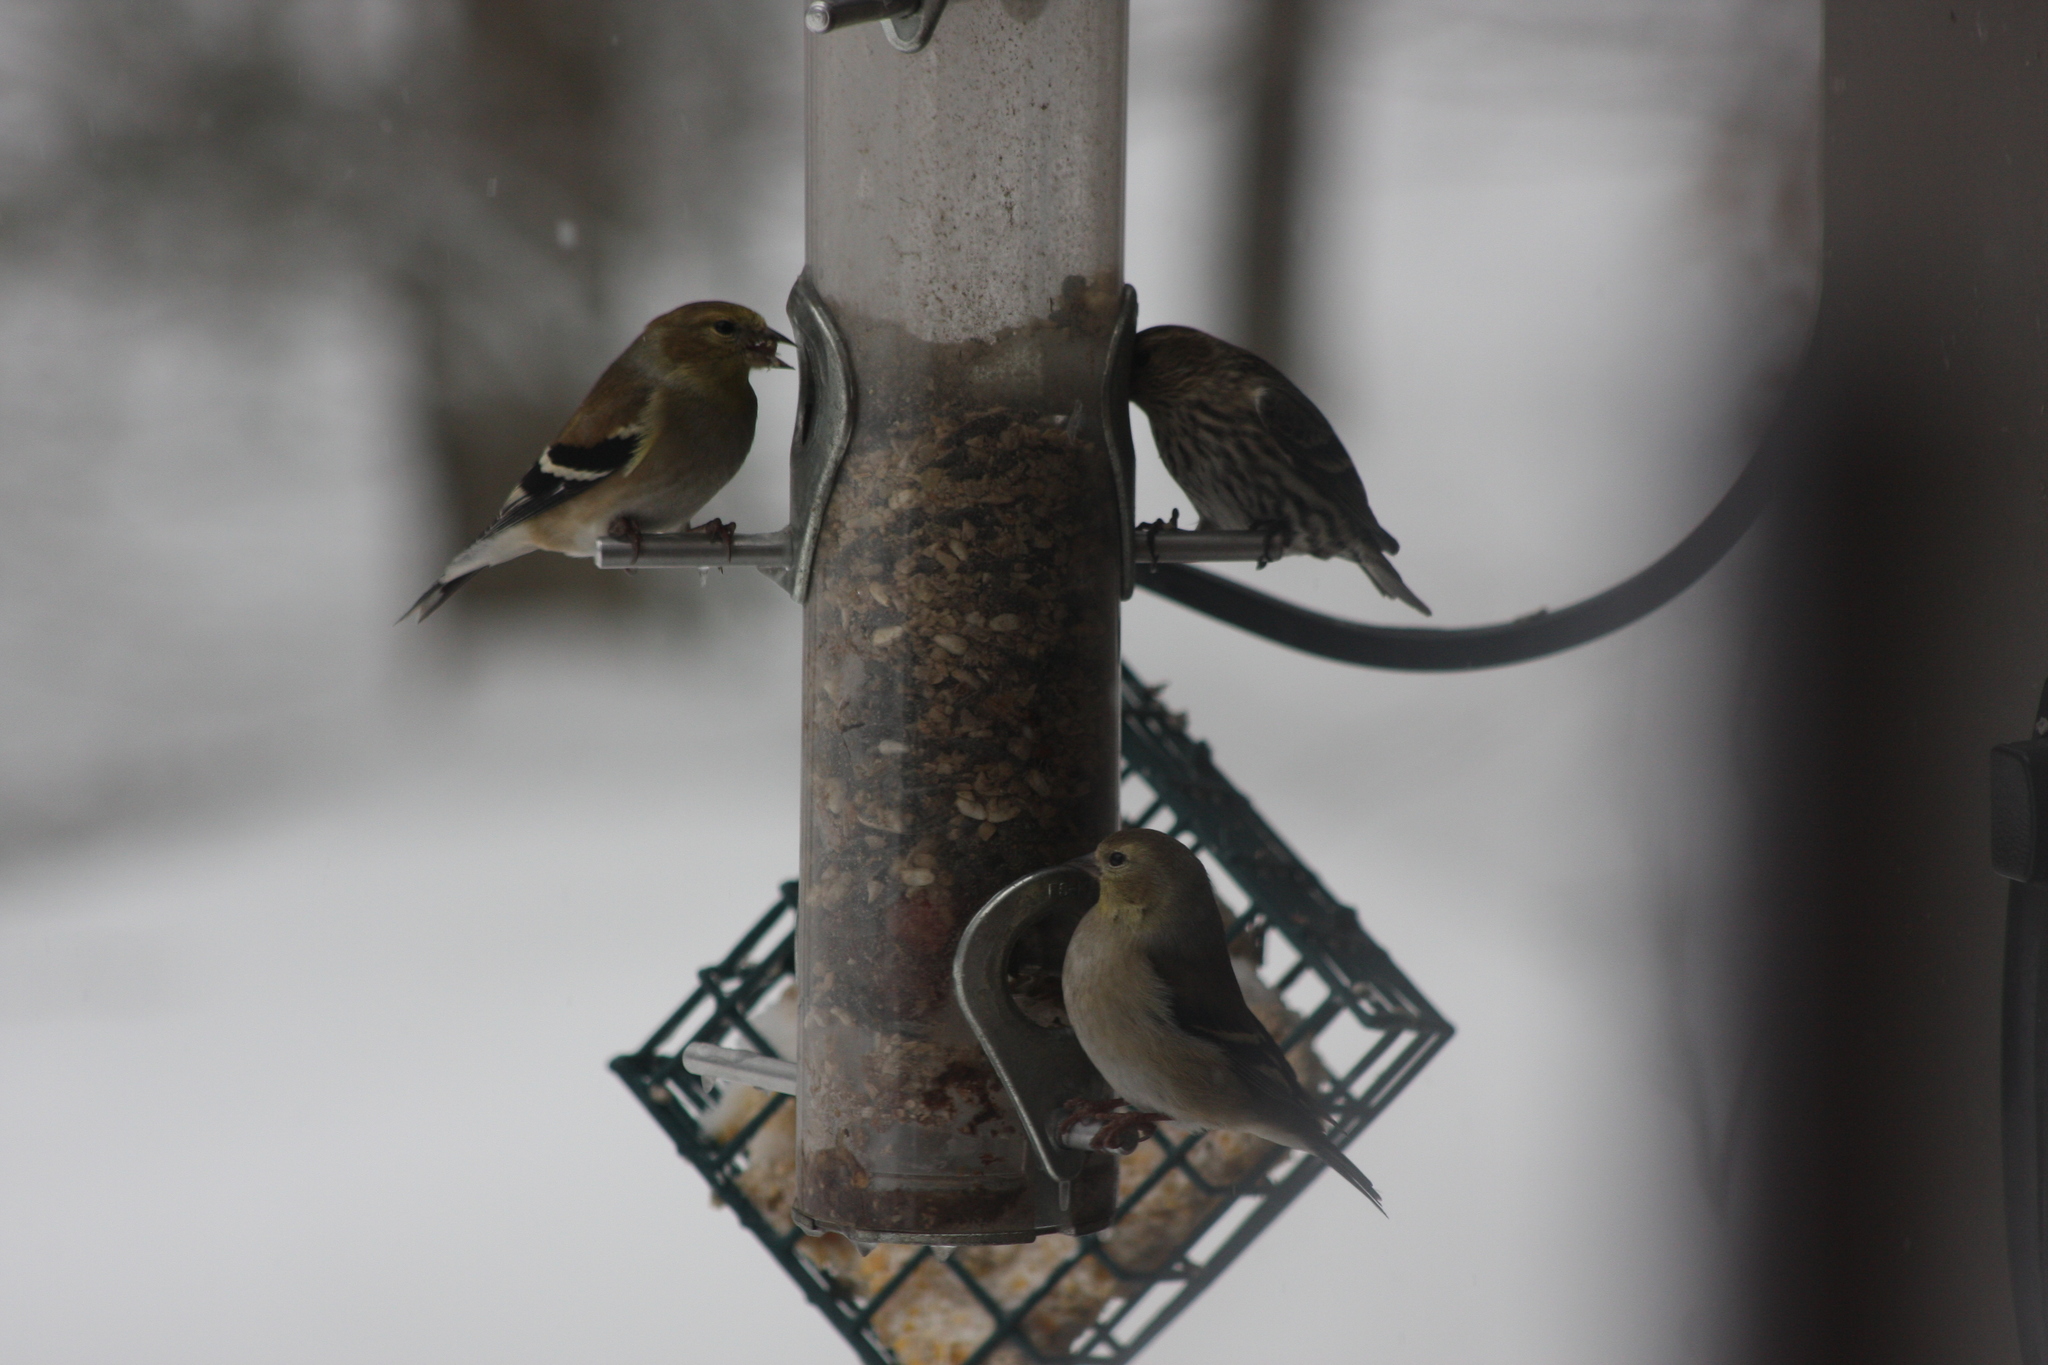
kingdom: Animalia
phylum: Chordata
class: Aves
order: Passeriformes
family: Fringillidae
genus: Spinus
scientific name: Spinus pinus
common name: Pine siskin
